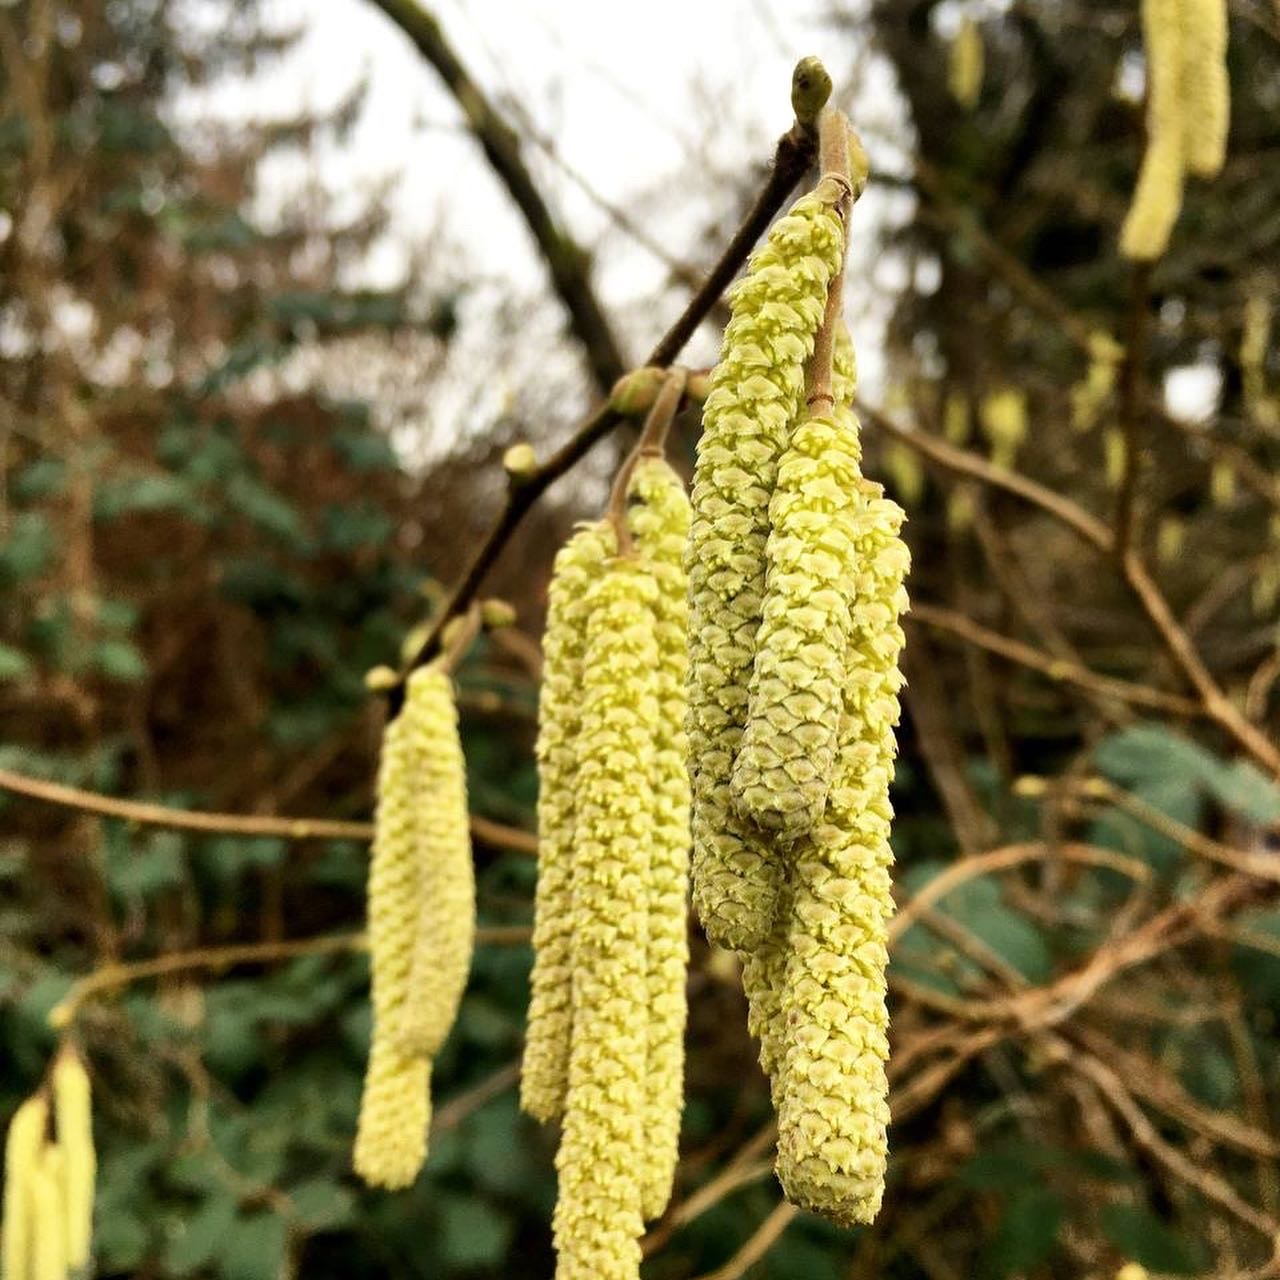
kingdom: Plantae
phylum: Tracheophyta
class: Magnoliopsida
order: Fagales
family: Betulaceae
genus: Corylus
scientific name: Corylus avellana
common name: European hazel
